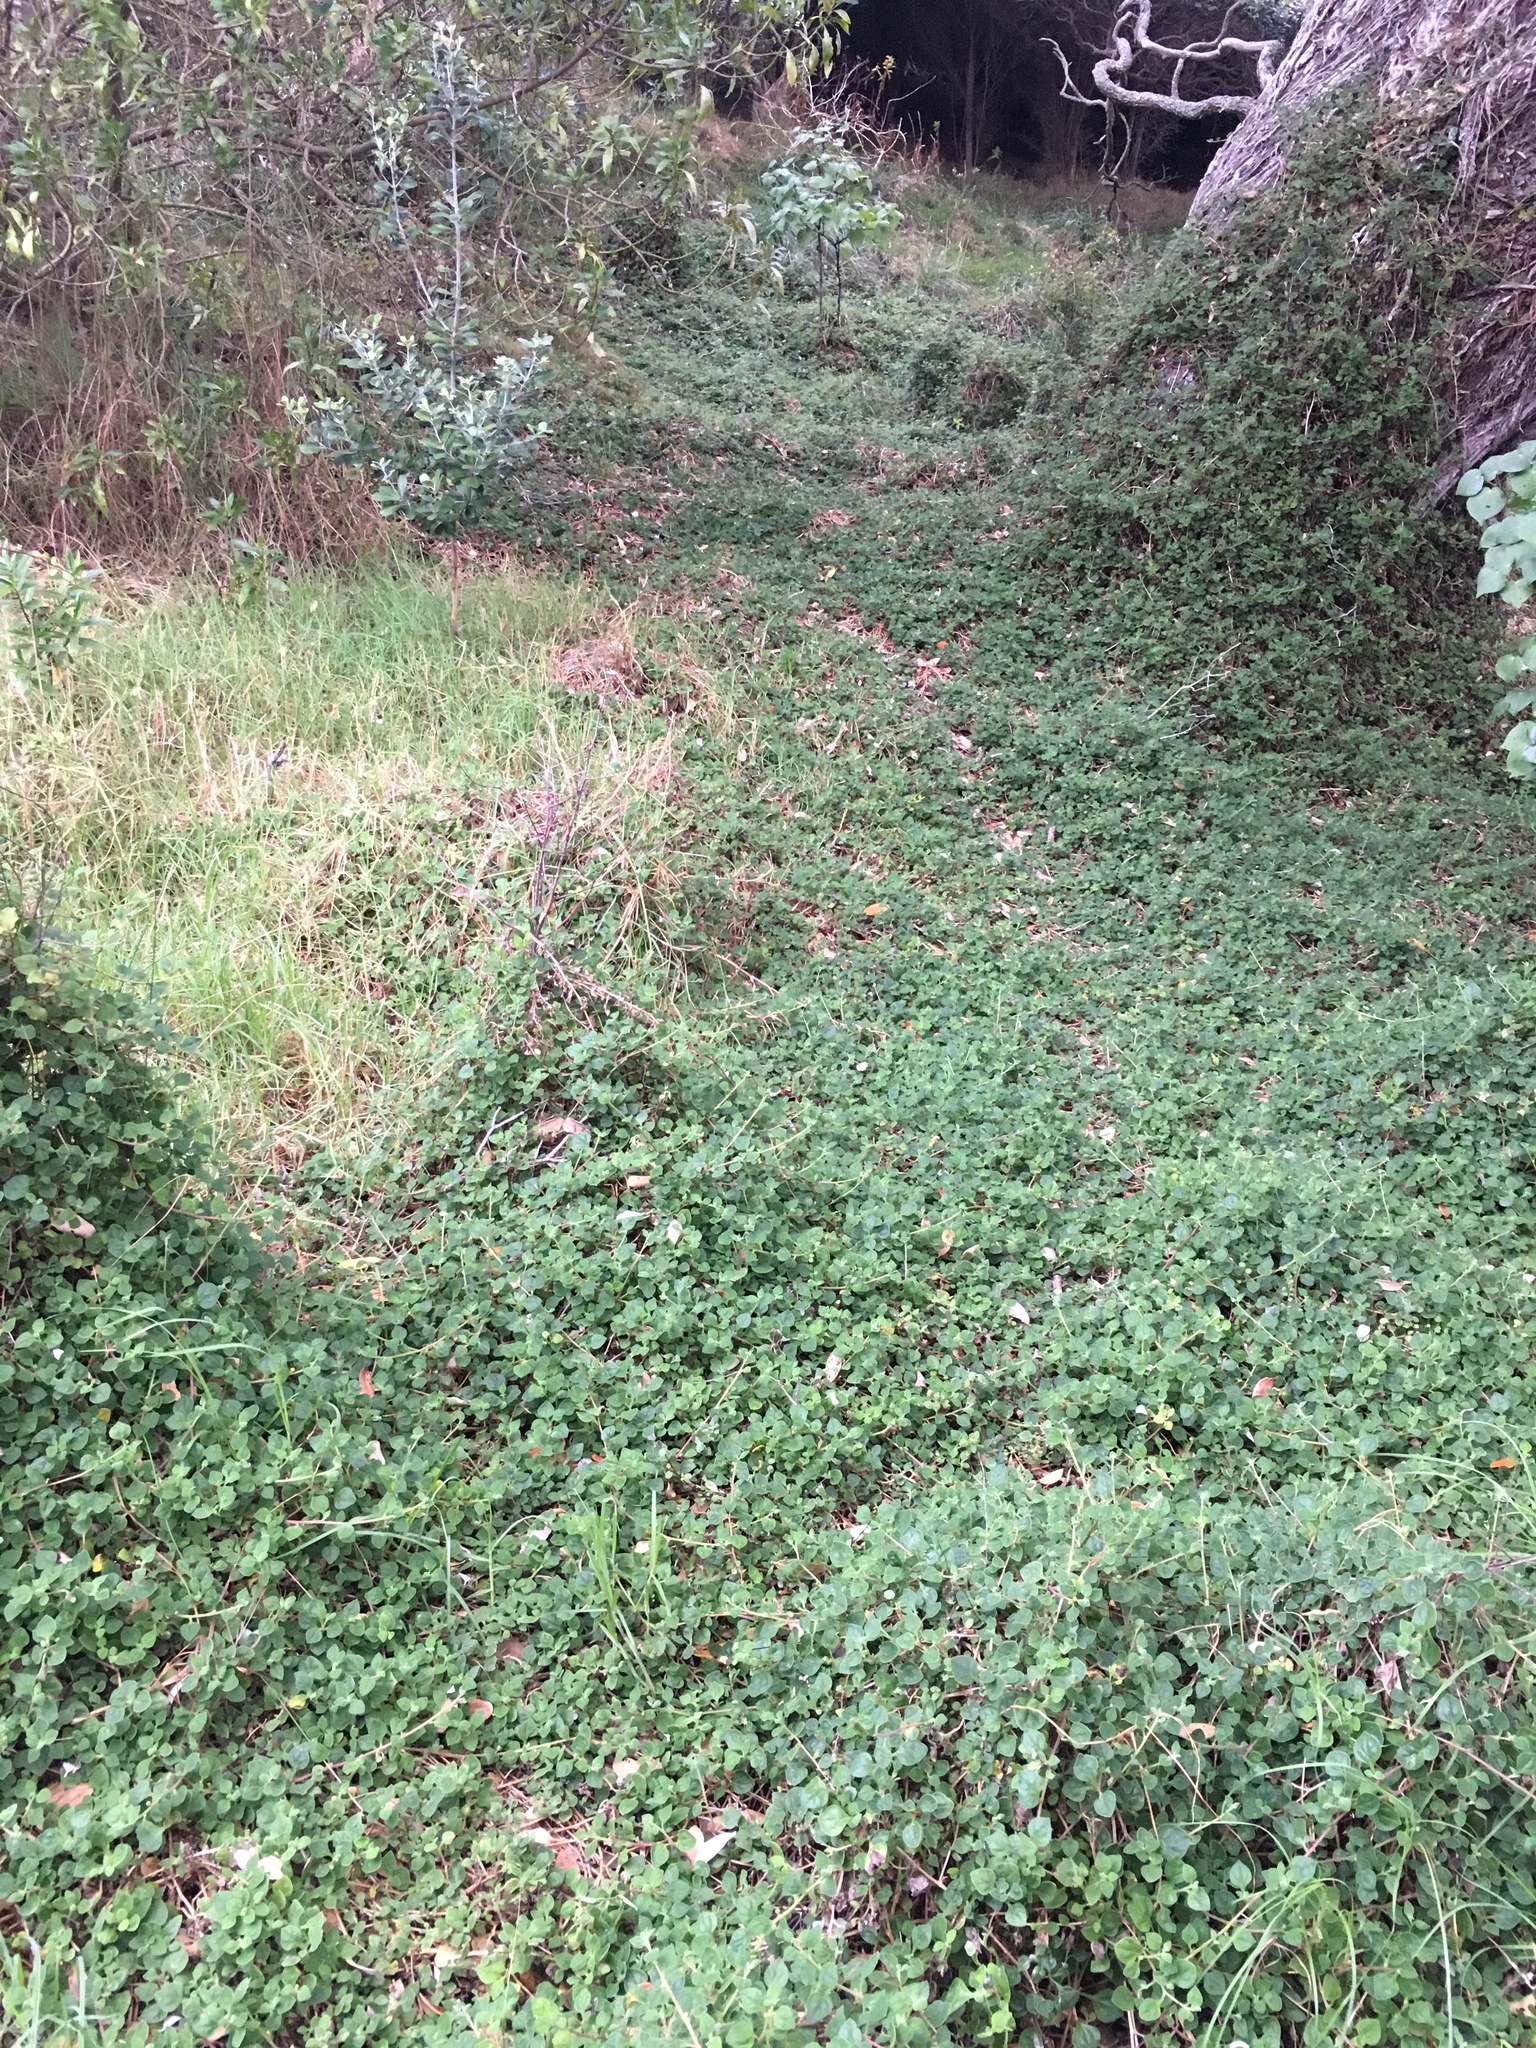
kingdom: Plantae
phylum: Tracheophyta
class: Magnoliopsida
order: Caryophyllales
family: Aizoaceae
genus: Tetragonia
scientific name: Tetragonia implexicoma
